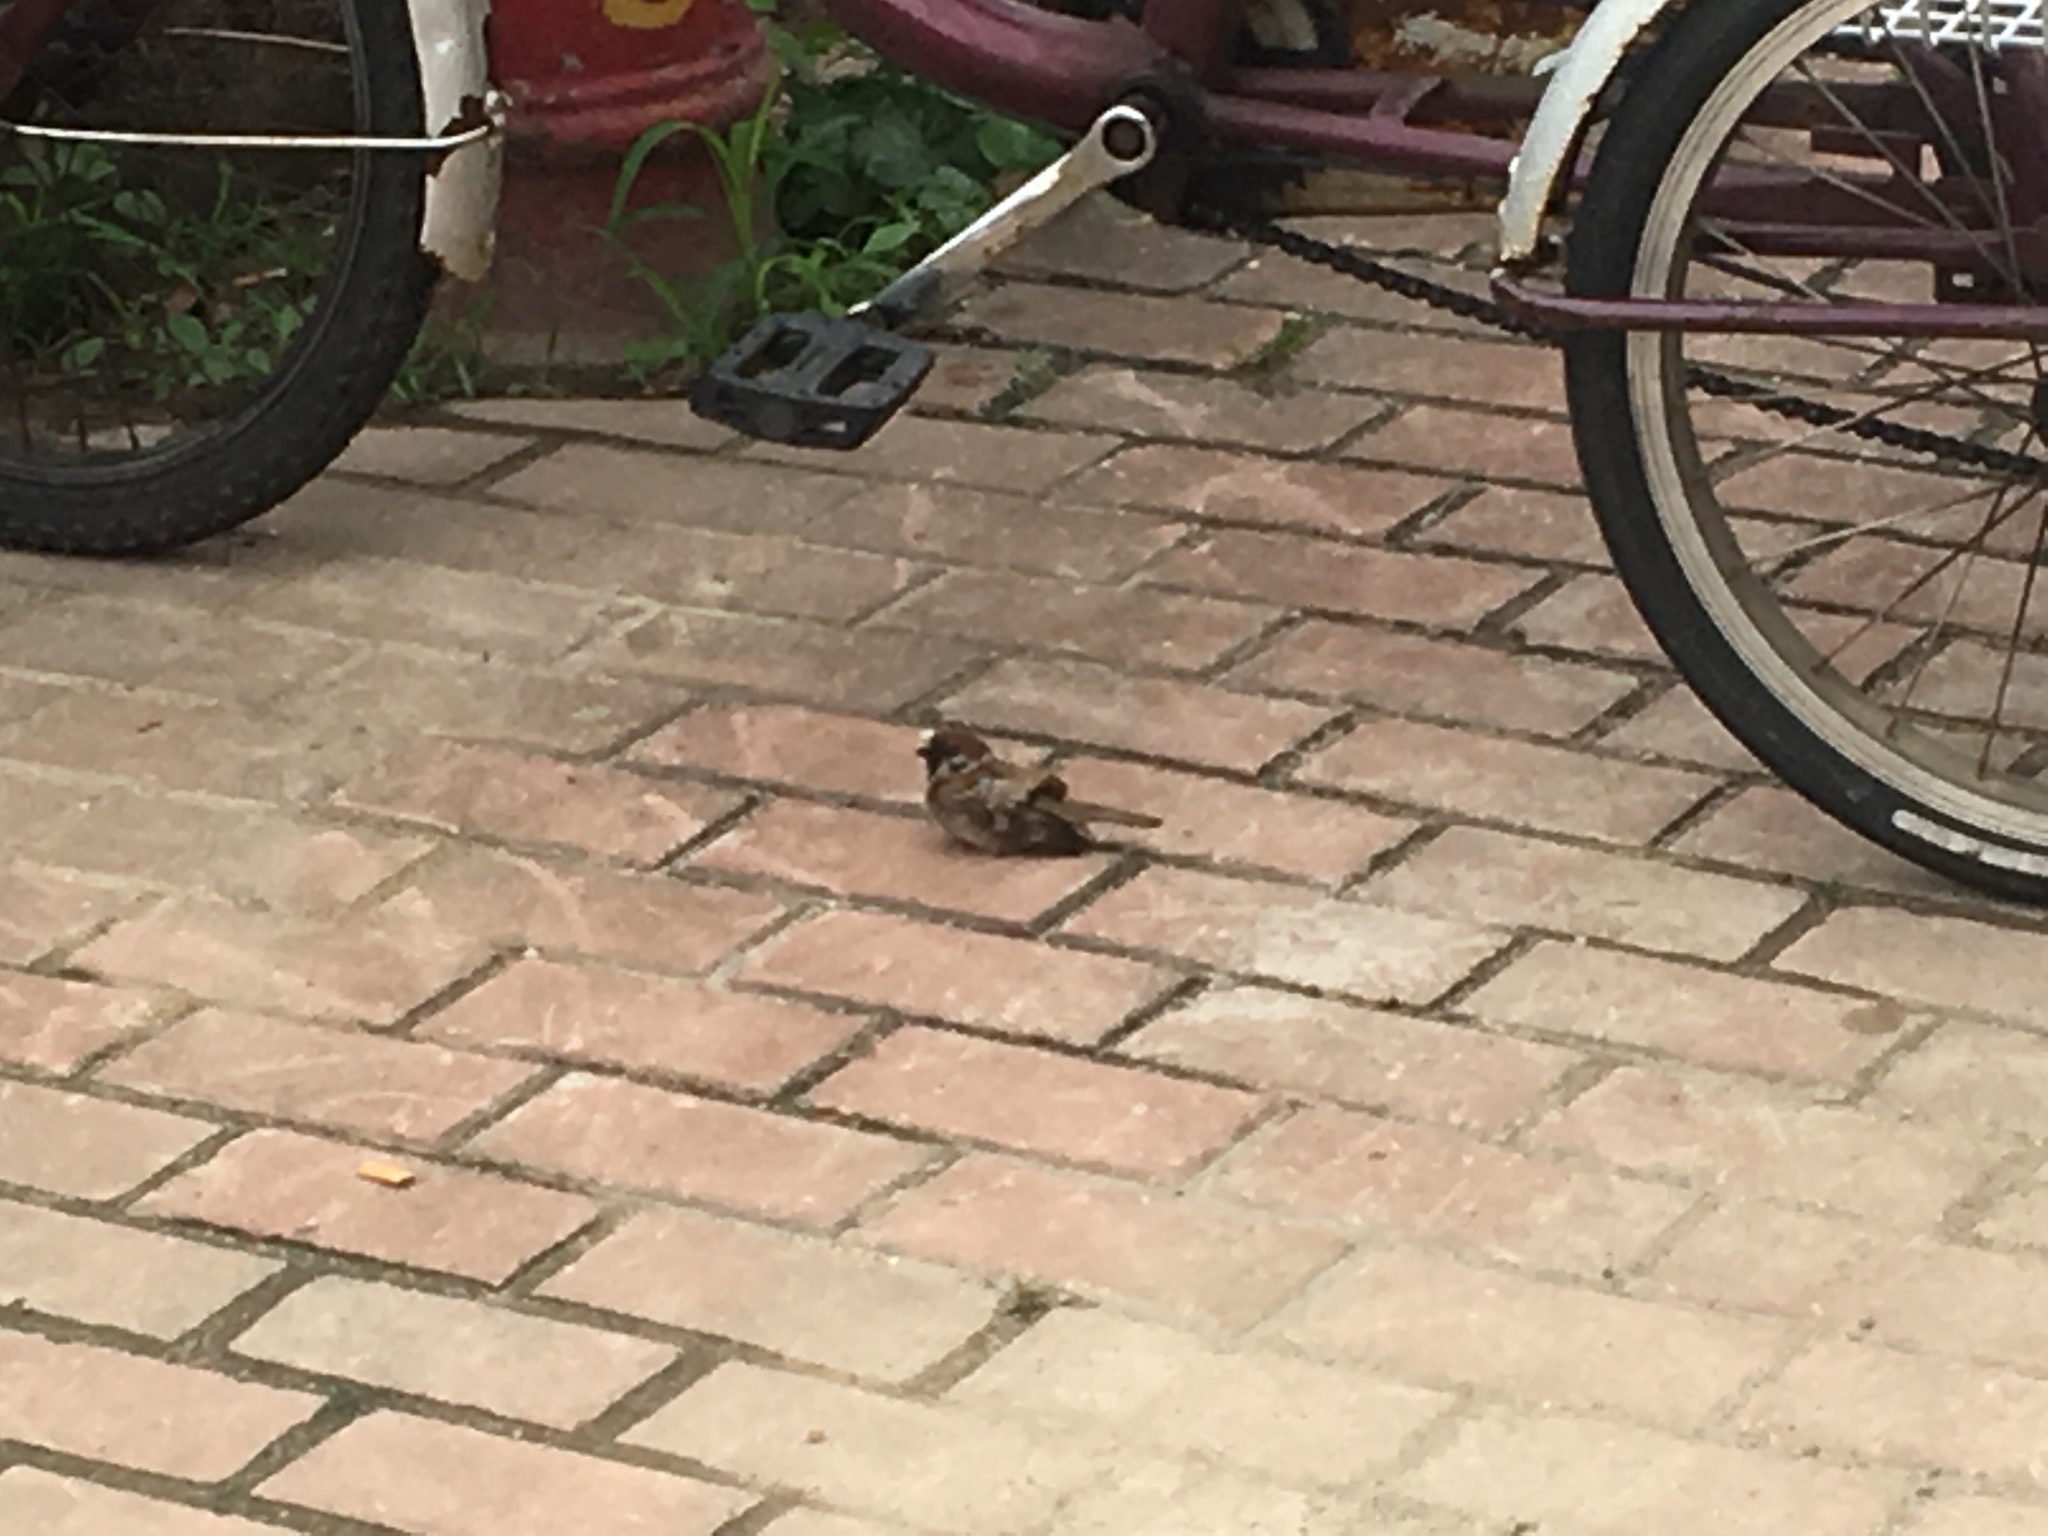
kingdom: Animalia
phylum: Chordata
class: Aves
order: Passeriformes
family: Passeridae
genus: Passer
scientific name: Passer montanus
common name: Eurasian tree sparrow
